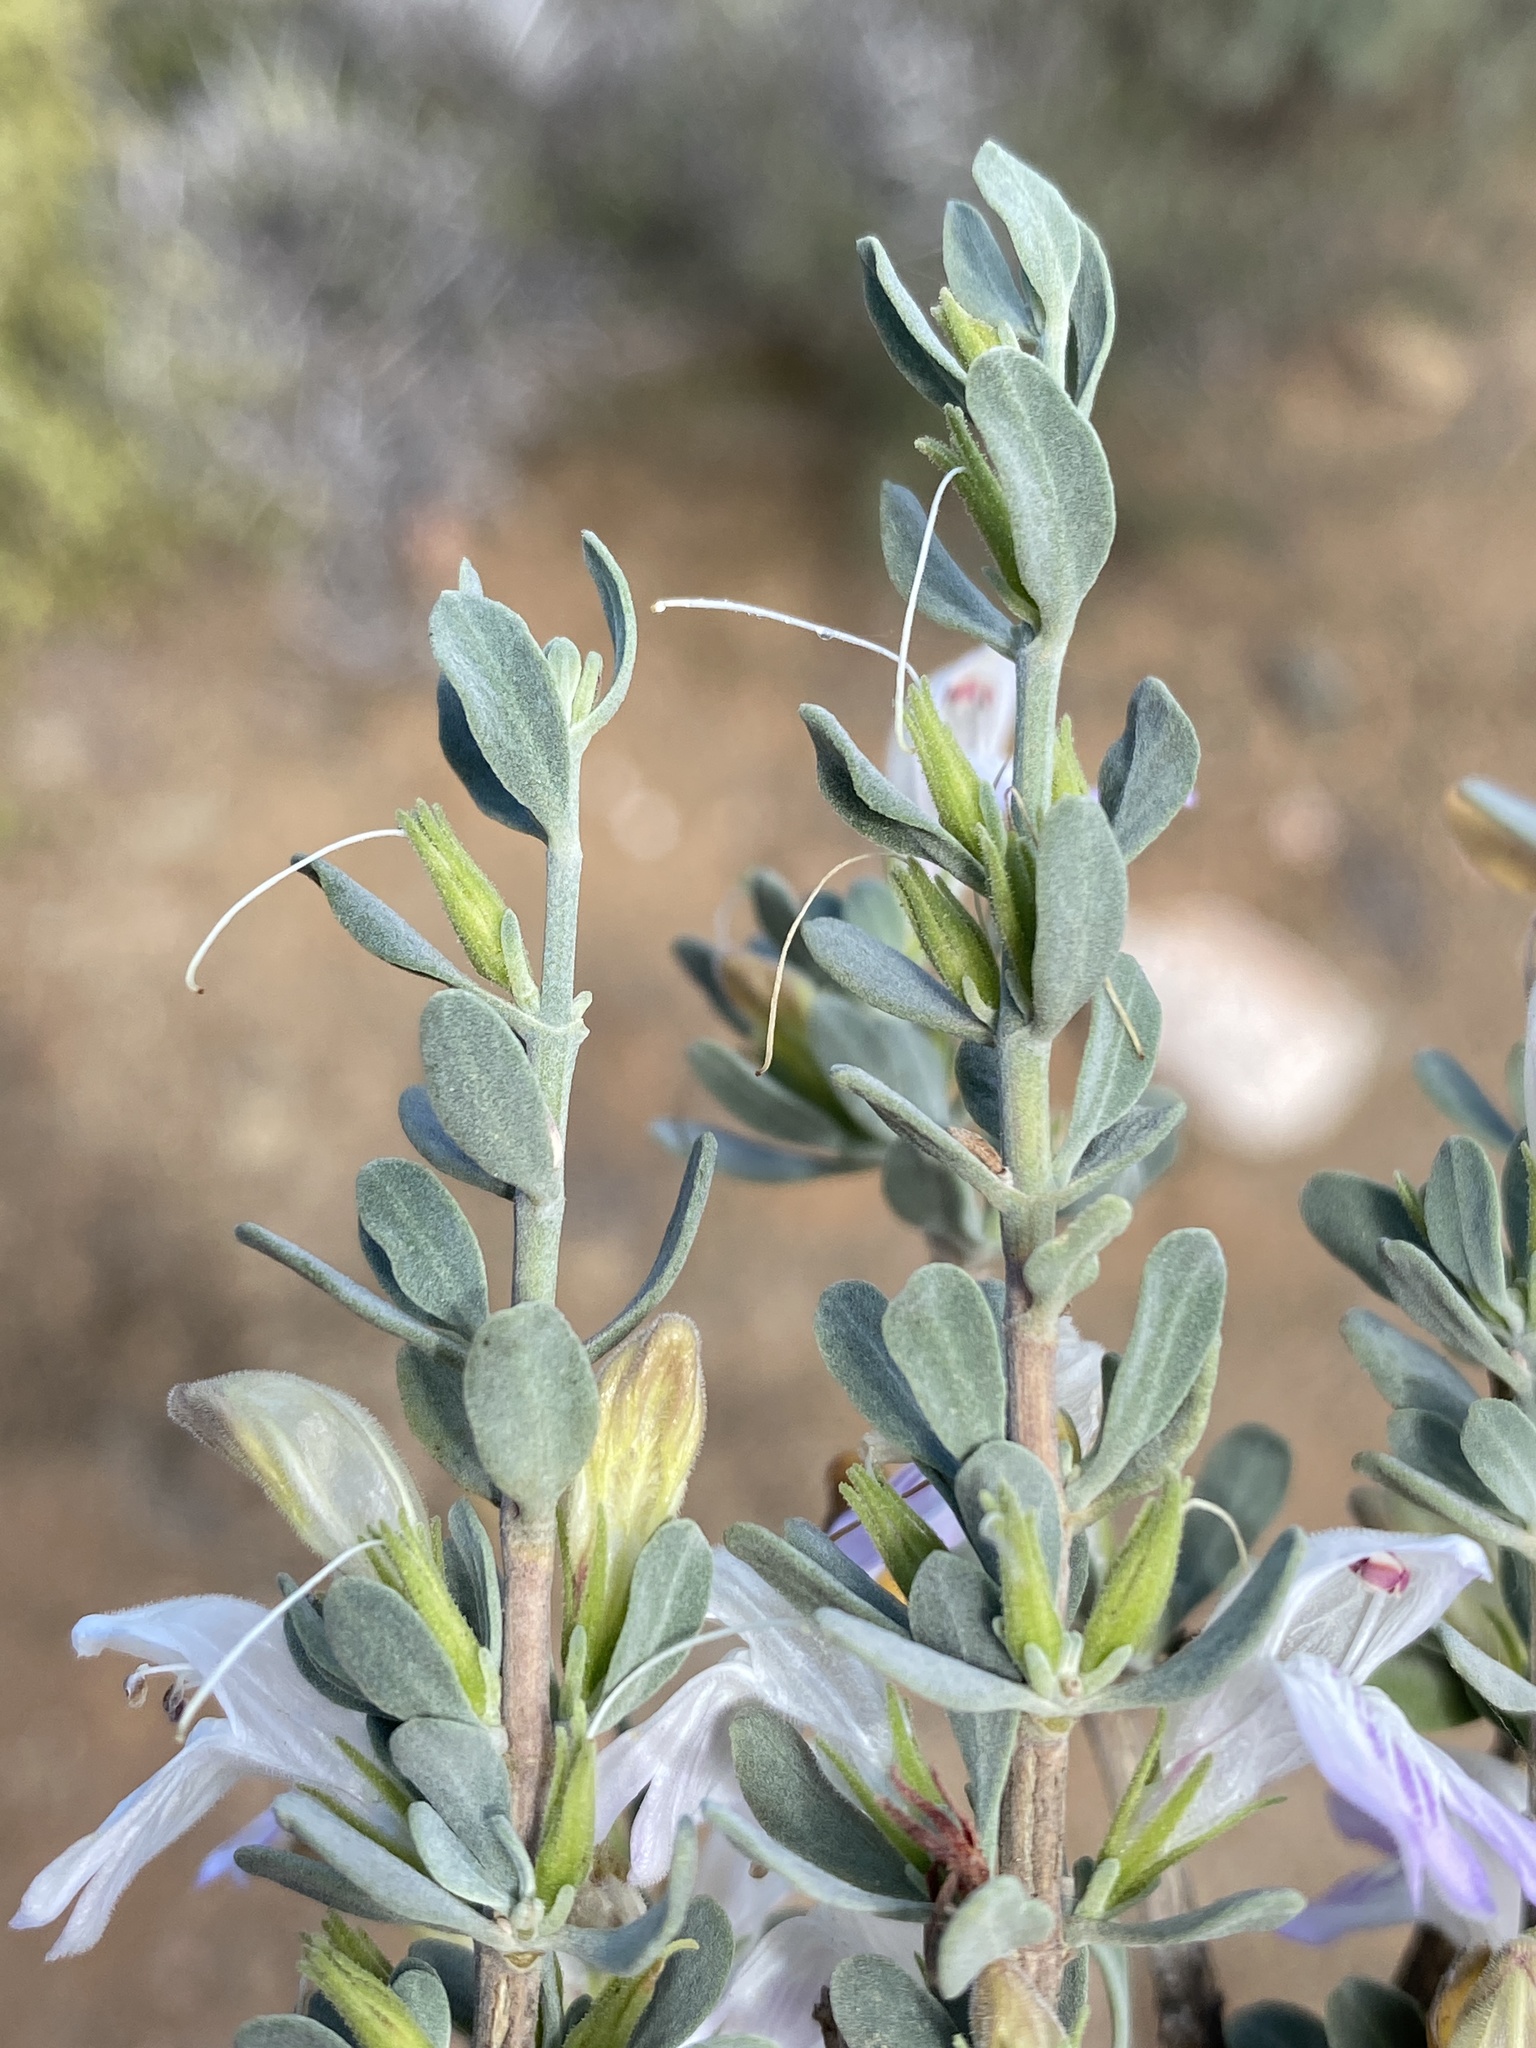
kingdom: Plantae
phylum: Tracheophyta
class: Magnoliopsida
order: Lamiales
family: Acanthaceae
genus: Pogonospermum
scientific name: Pogonospermum
